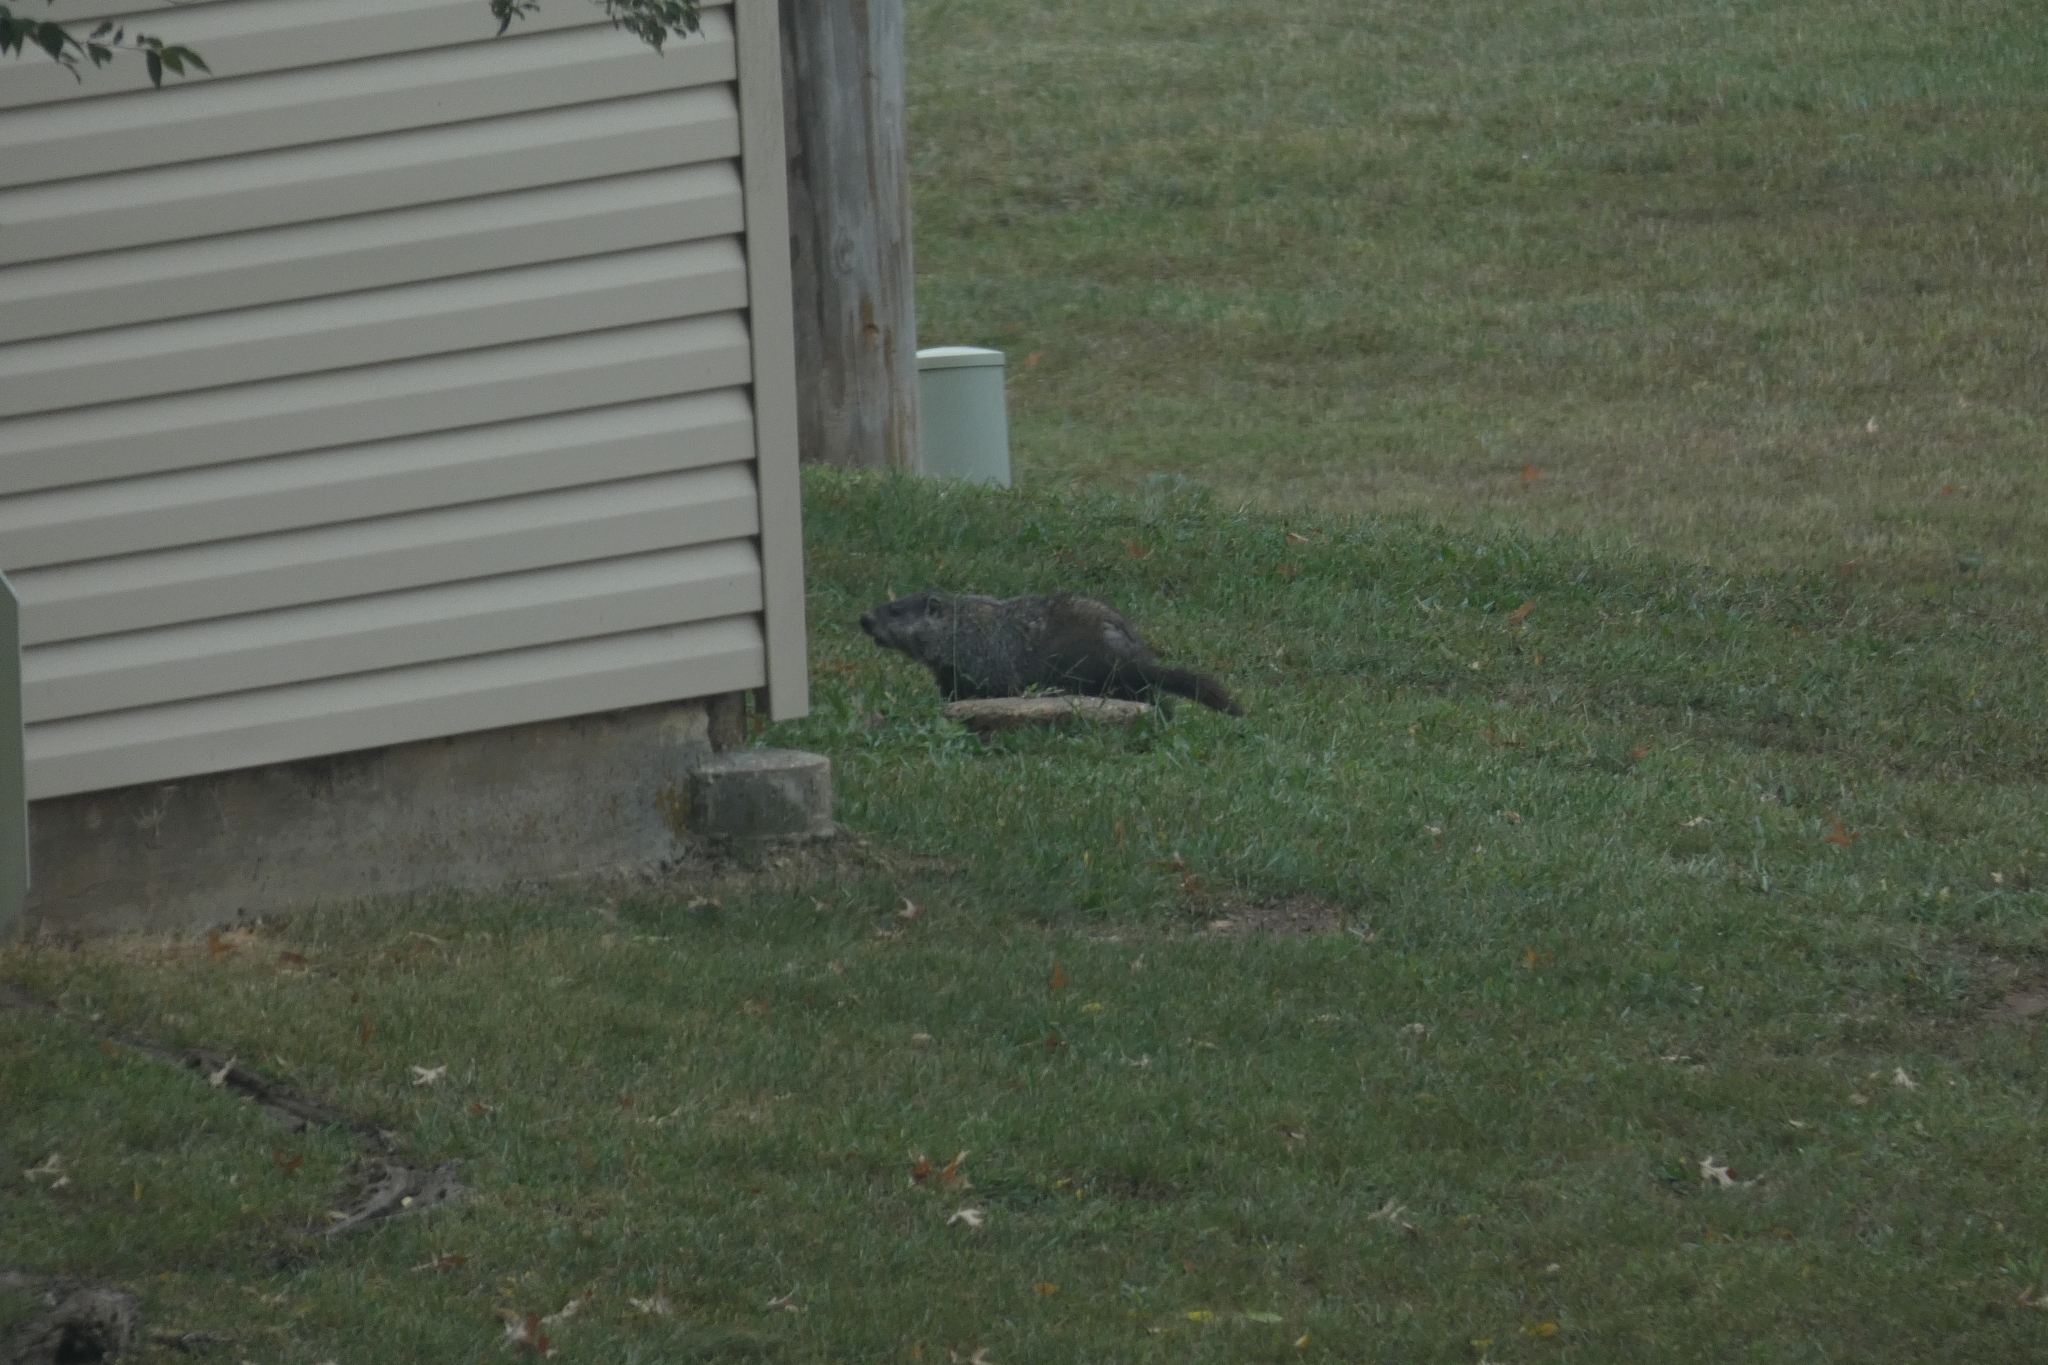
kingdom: Animalia
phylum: Chordata
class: Mammalia
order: Rodentia
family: Sciuridae
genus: Marmota
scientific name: Marmota monax
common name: Groundhog
